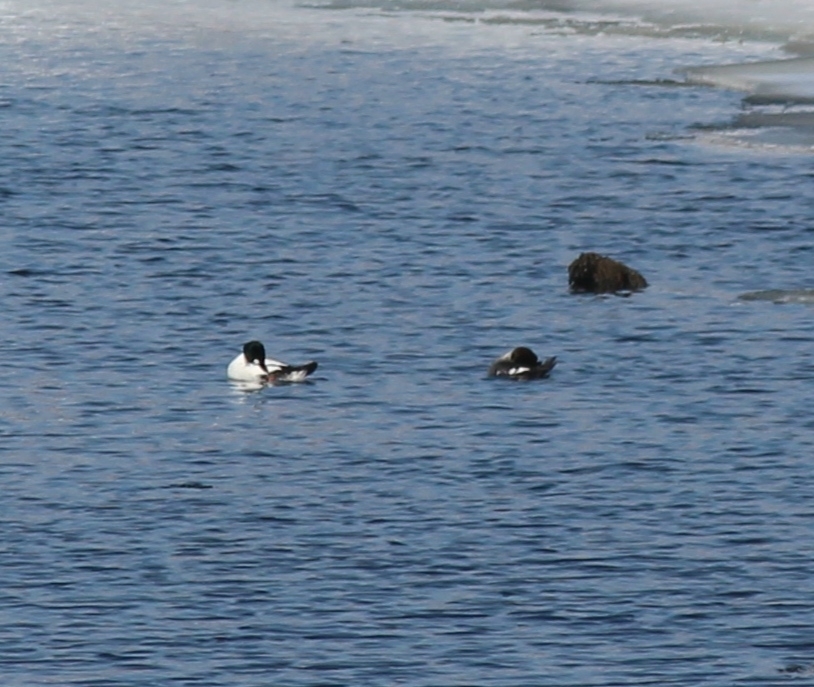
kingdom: Animalia
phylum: Chordata
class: Aves
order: Anseriformes
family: Anatidae
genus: Bucephala
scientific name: Bucephala clangula
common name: Common goldeneye
